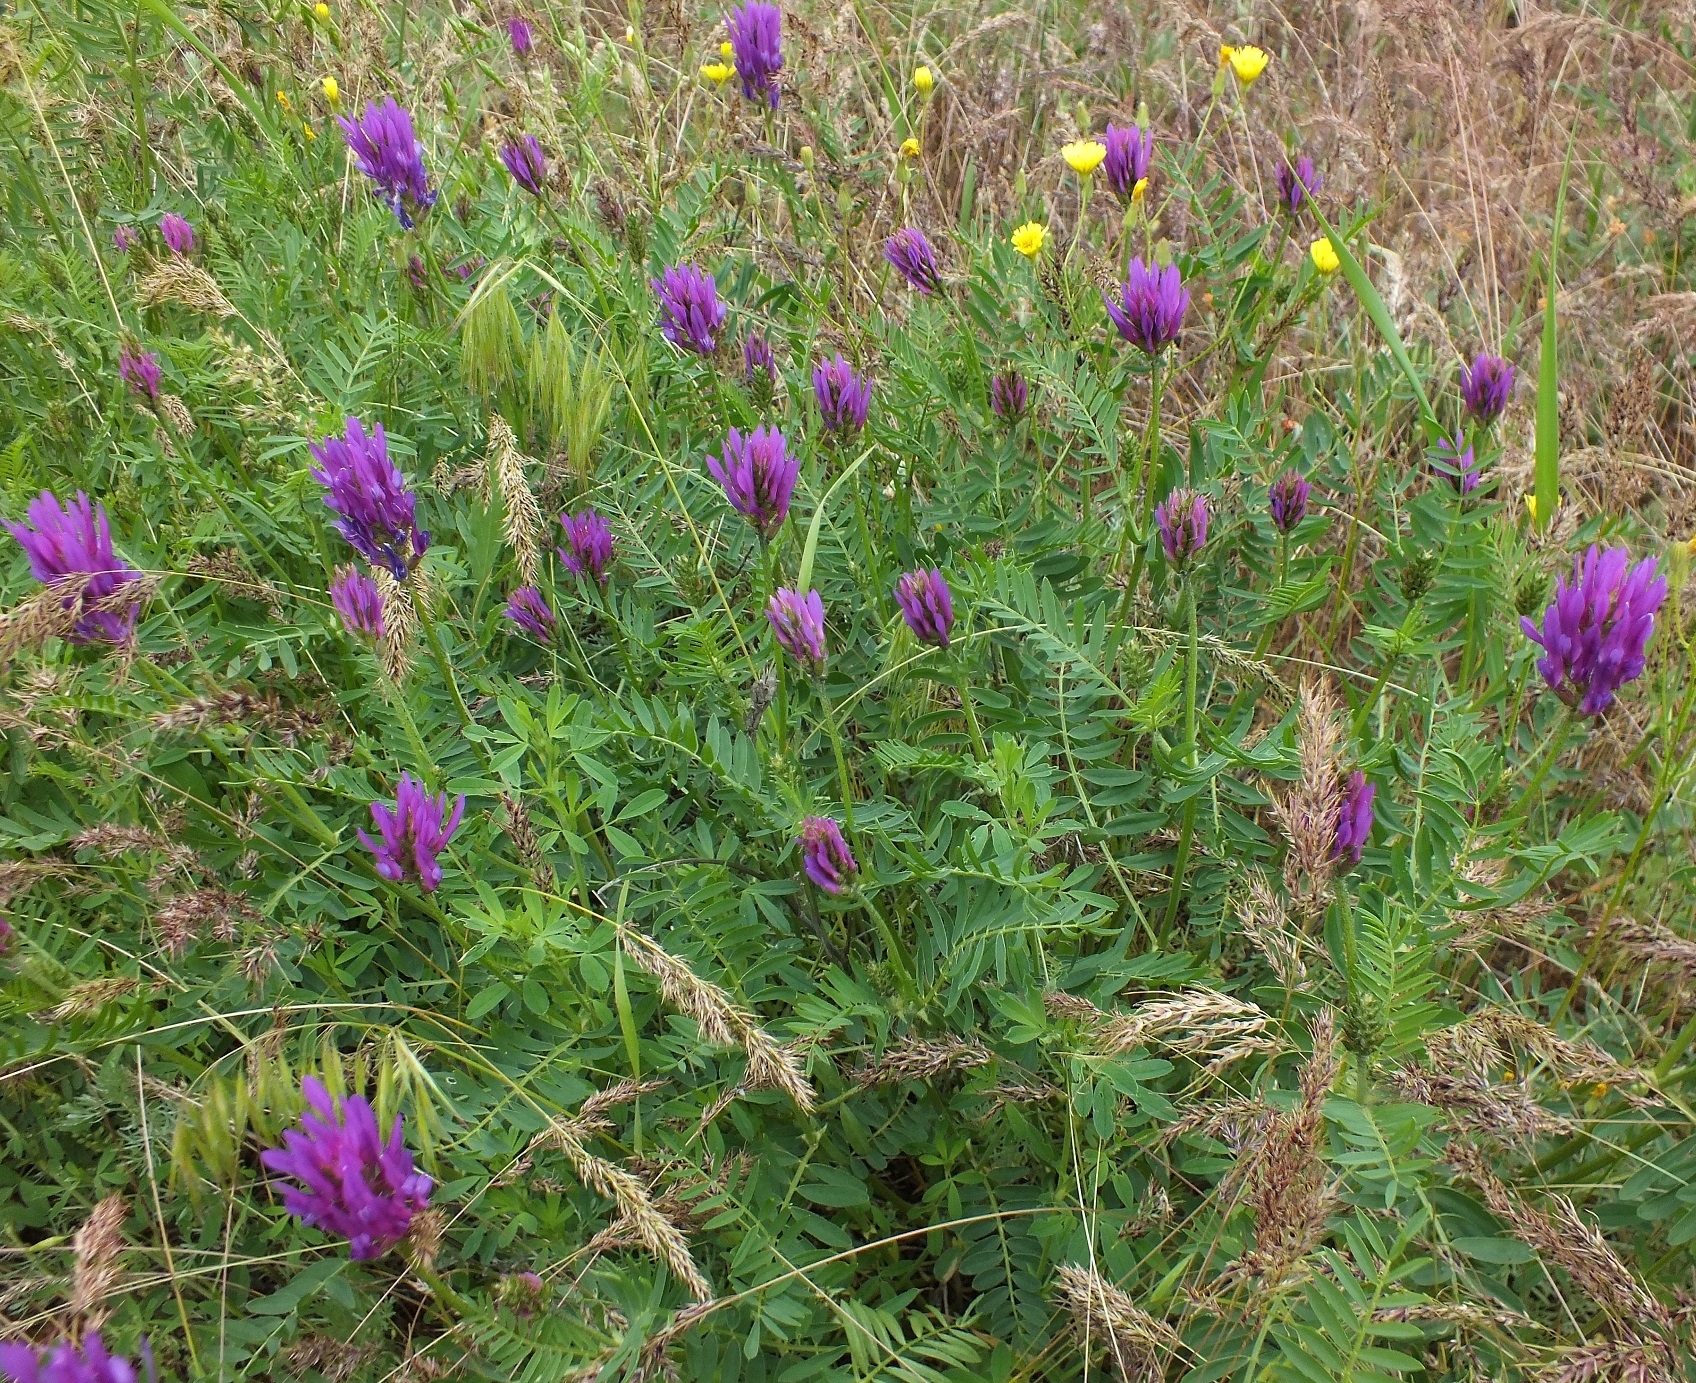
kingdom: Plantae
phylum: Tracheophyta
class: Magnoliopsida
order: Fabales
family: Fabaceae
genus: Astragalus
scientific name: Astragalus onobrychis
